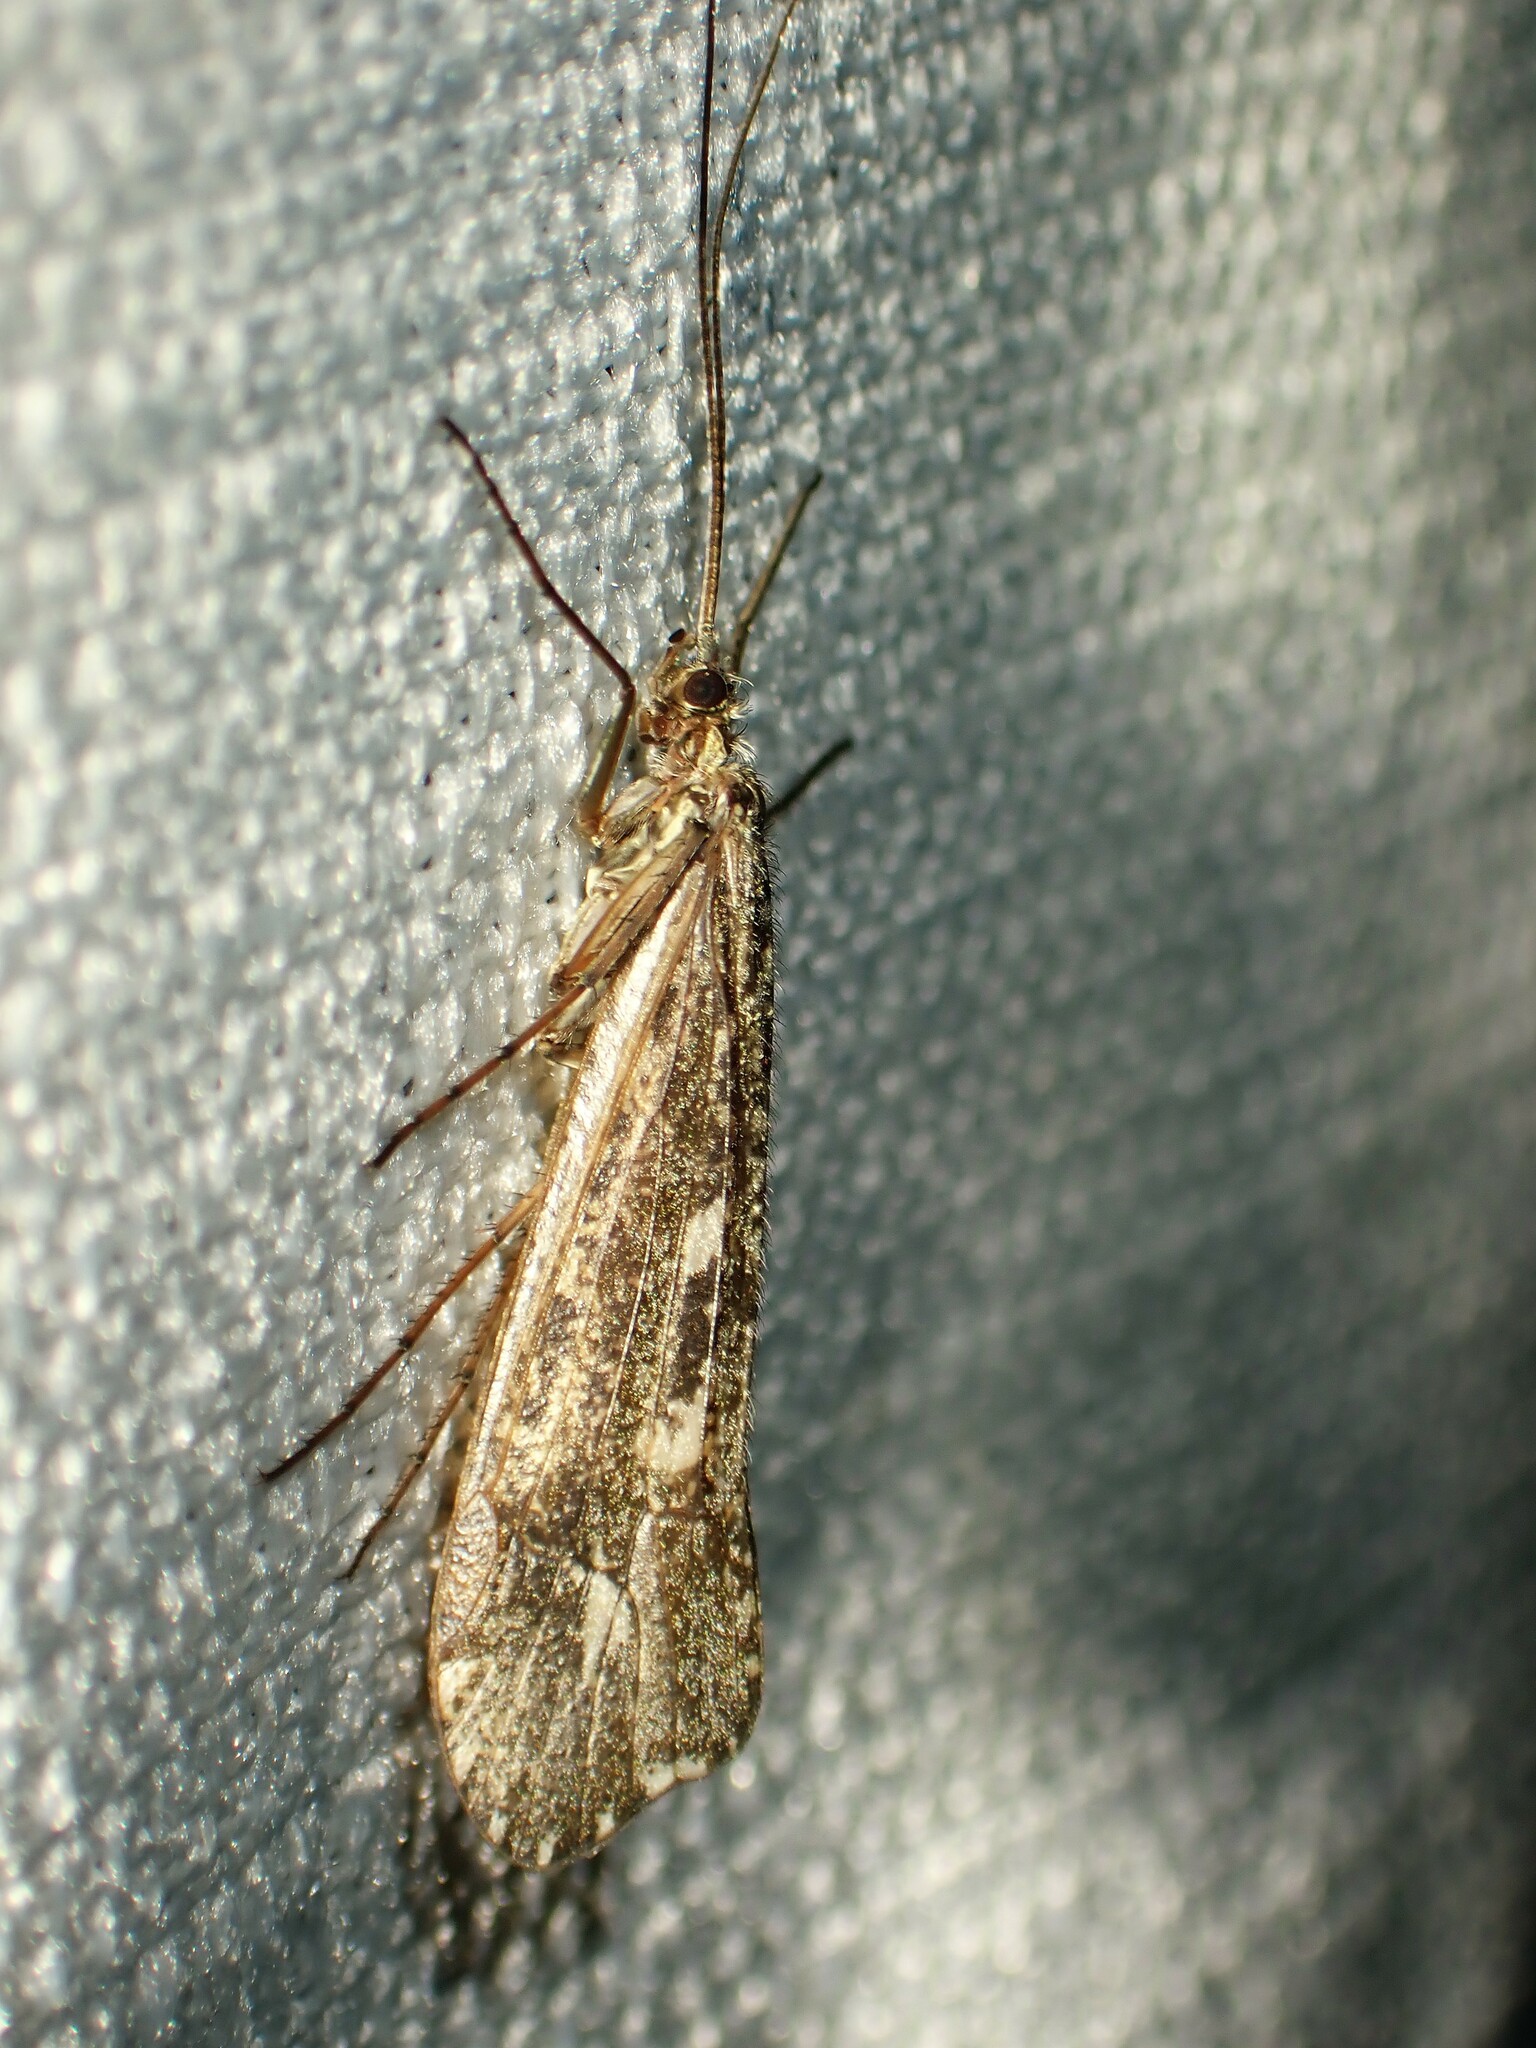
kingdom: Animalia
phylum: Arthropoda
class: Insecta
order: Trichoptera
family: Limnephilidae
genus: Glyphopsyche
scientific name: Glyphopsyche irrorata
